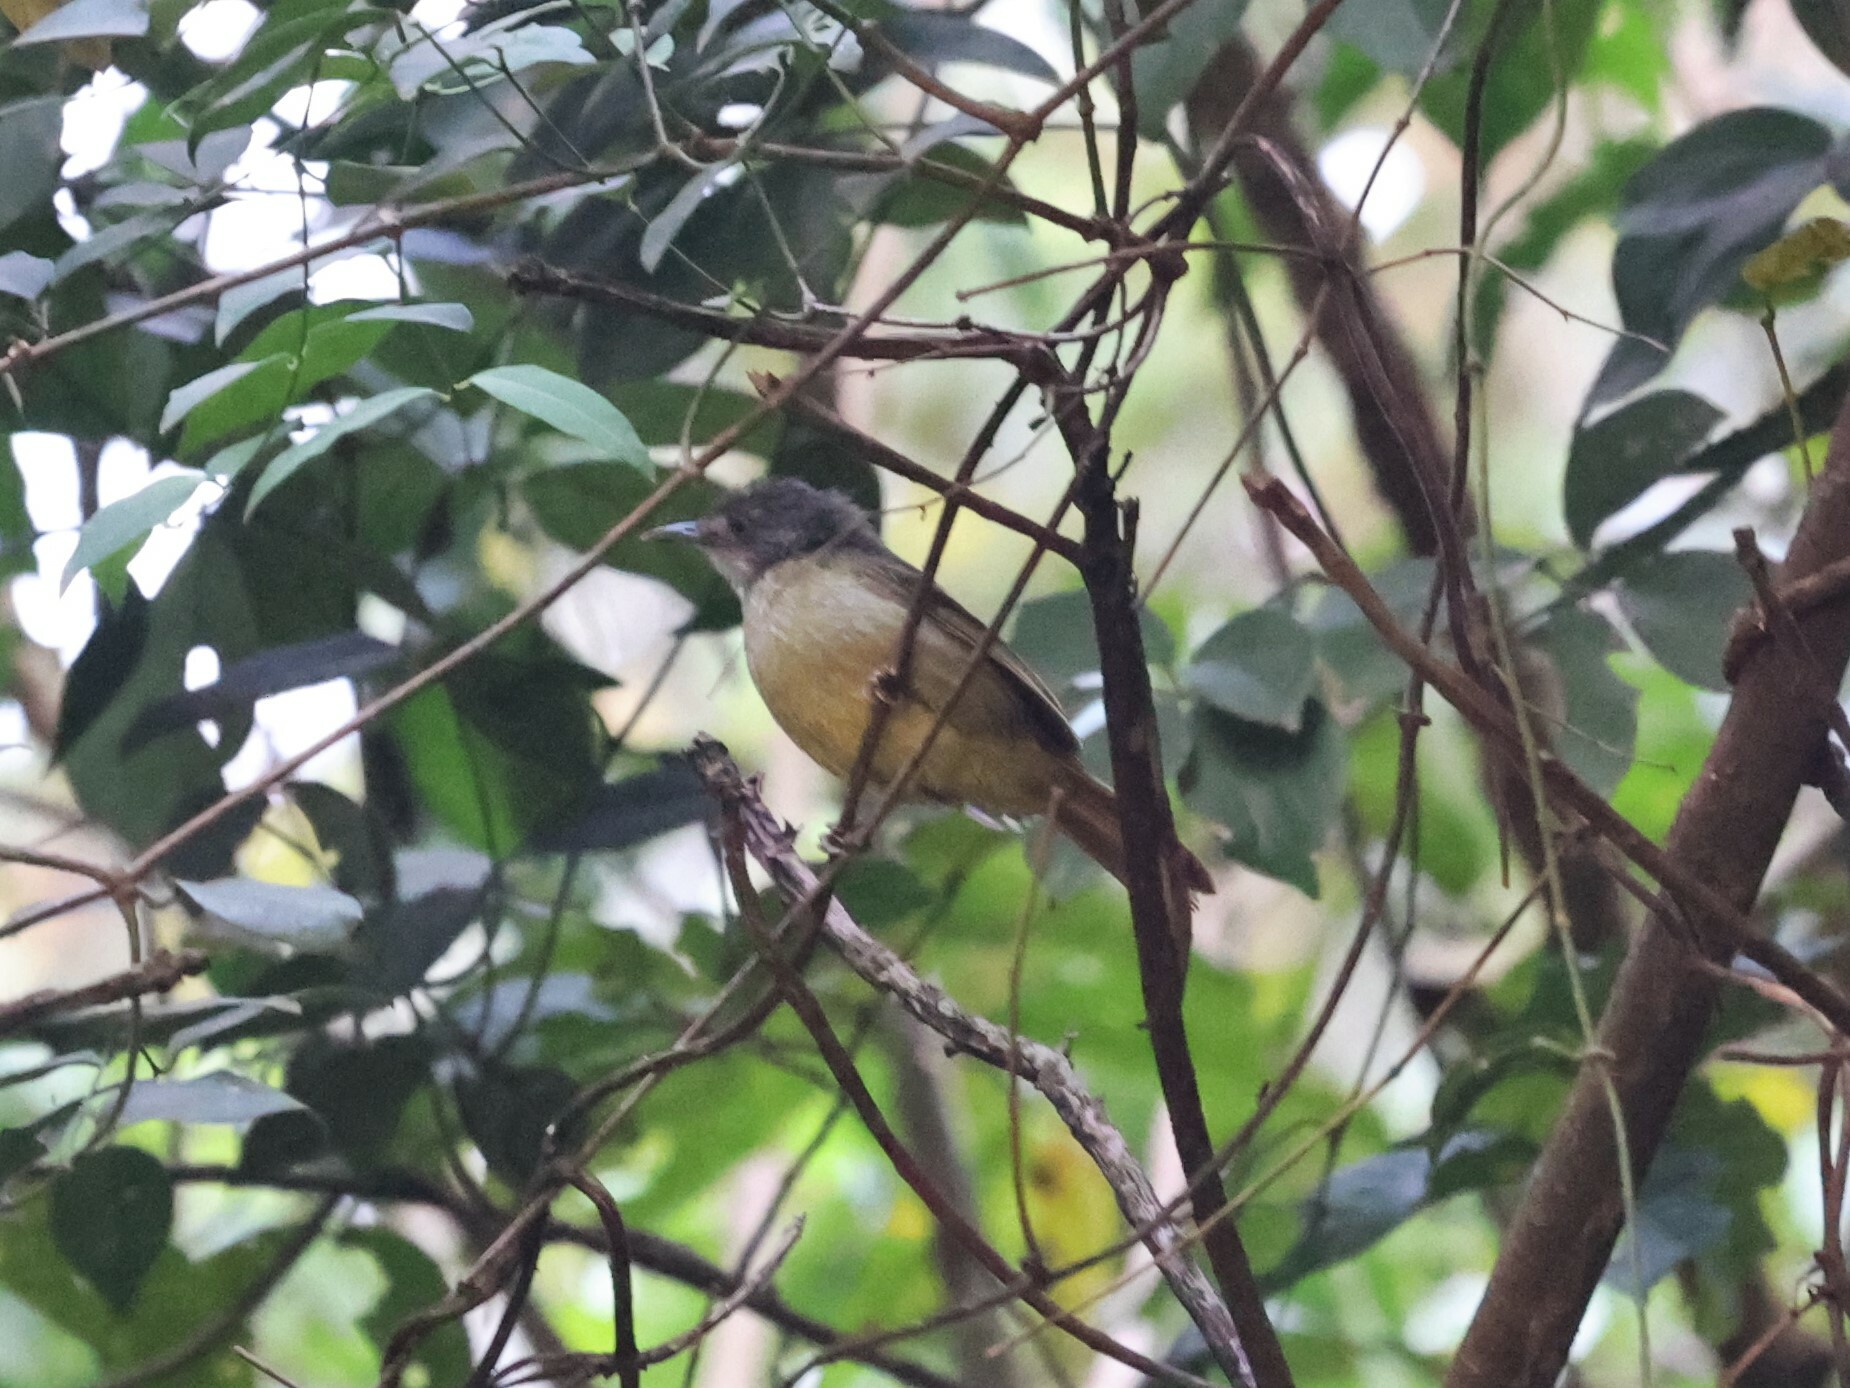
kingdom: Animalia
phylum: Chordata
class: Aves
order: Passeriformes
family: Pycnonotidae
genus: Phyllastrephus
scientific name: Phyllastrephus albigularis
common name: White-throated greenbul
